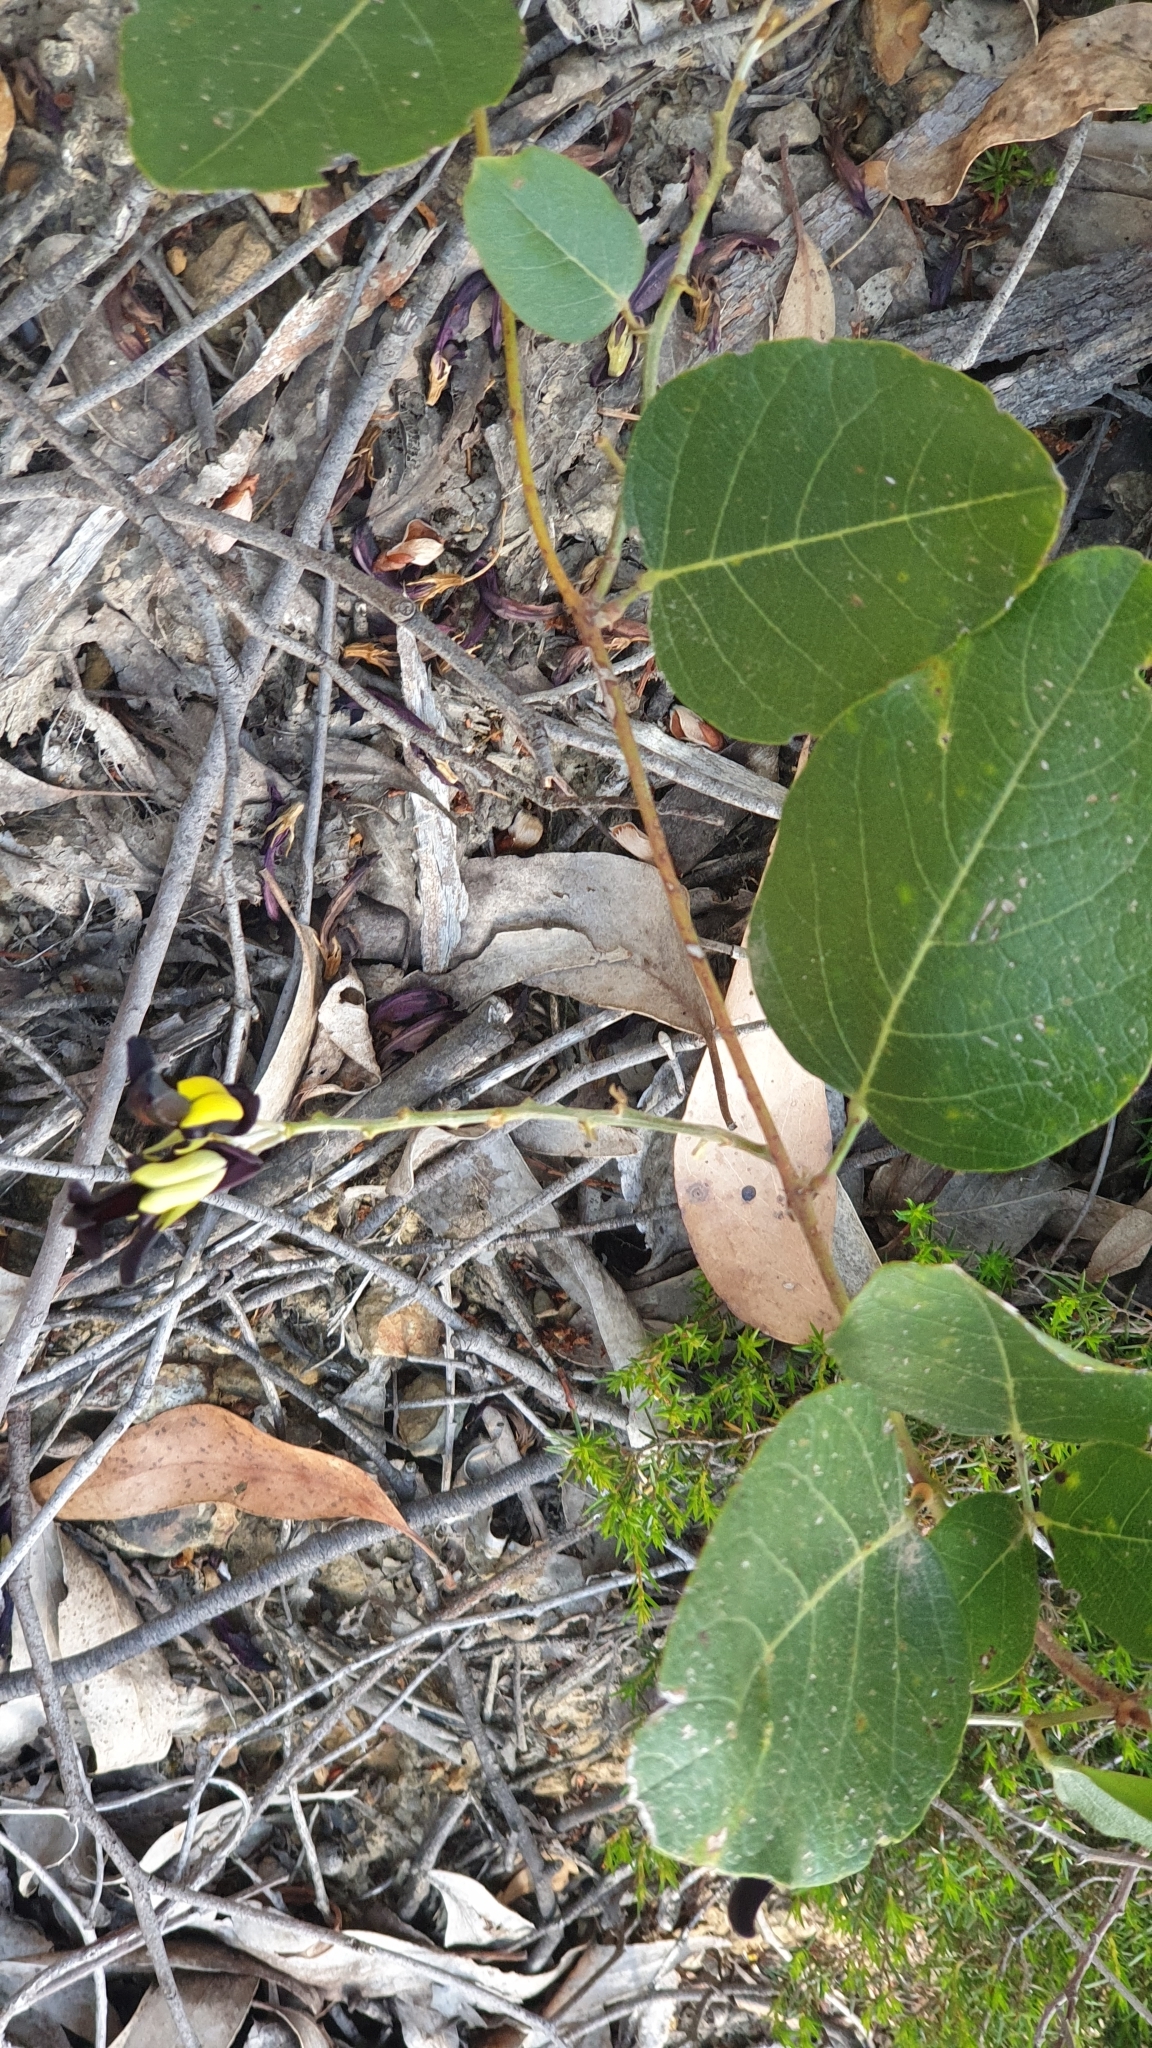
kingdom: Plantae
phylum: Tracheophyta
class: Magnoliopsida
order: Fabales
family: Fabaceae
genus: Kennedia
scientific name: Kennedia nigricans
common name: Black-bean
